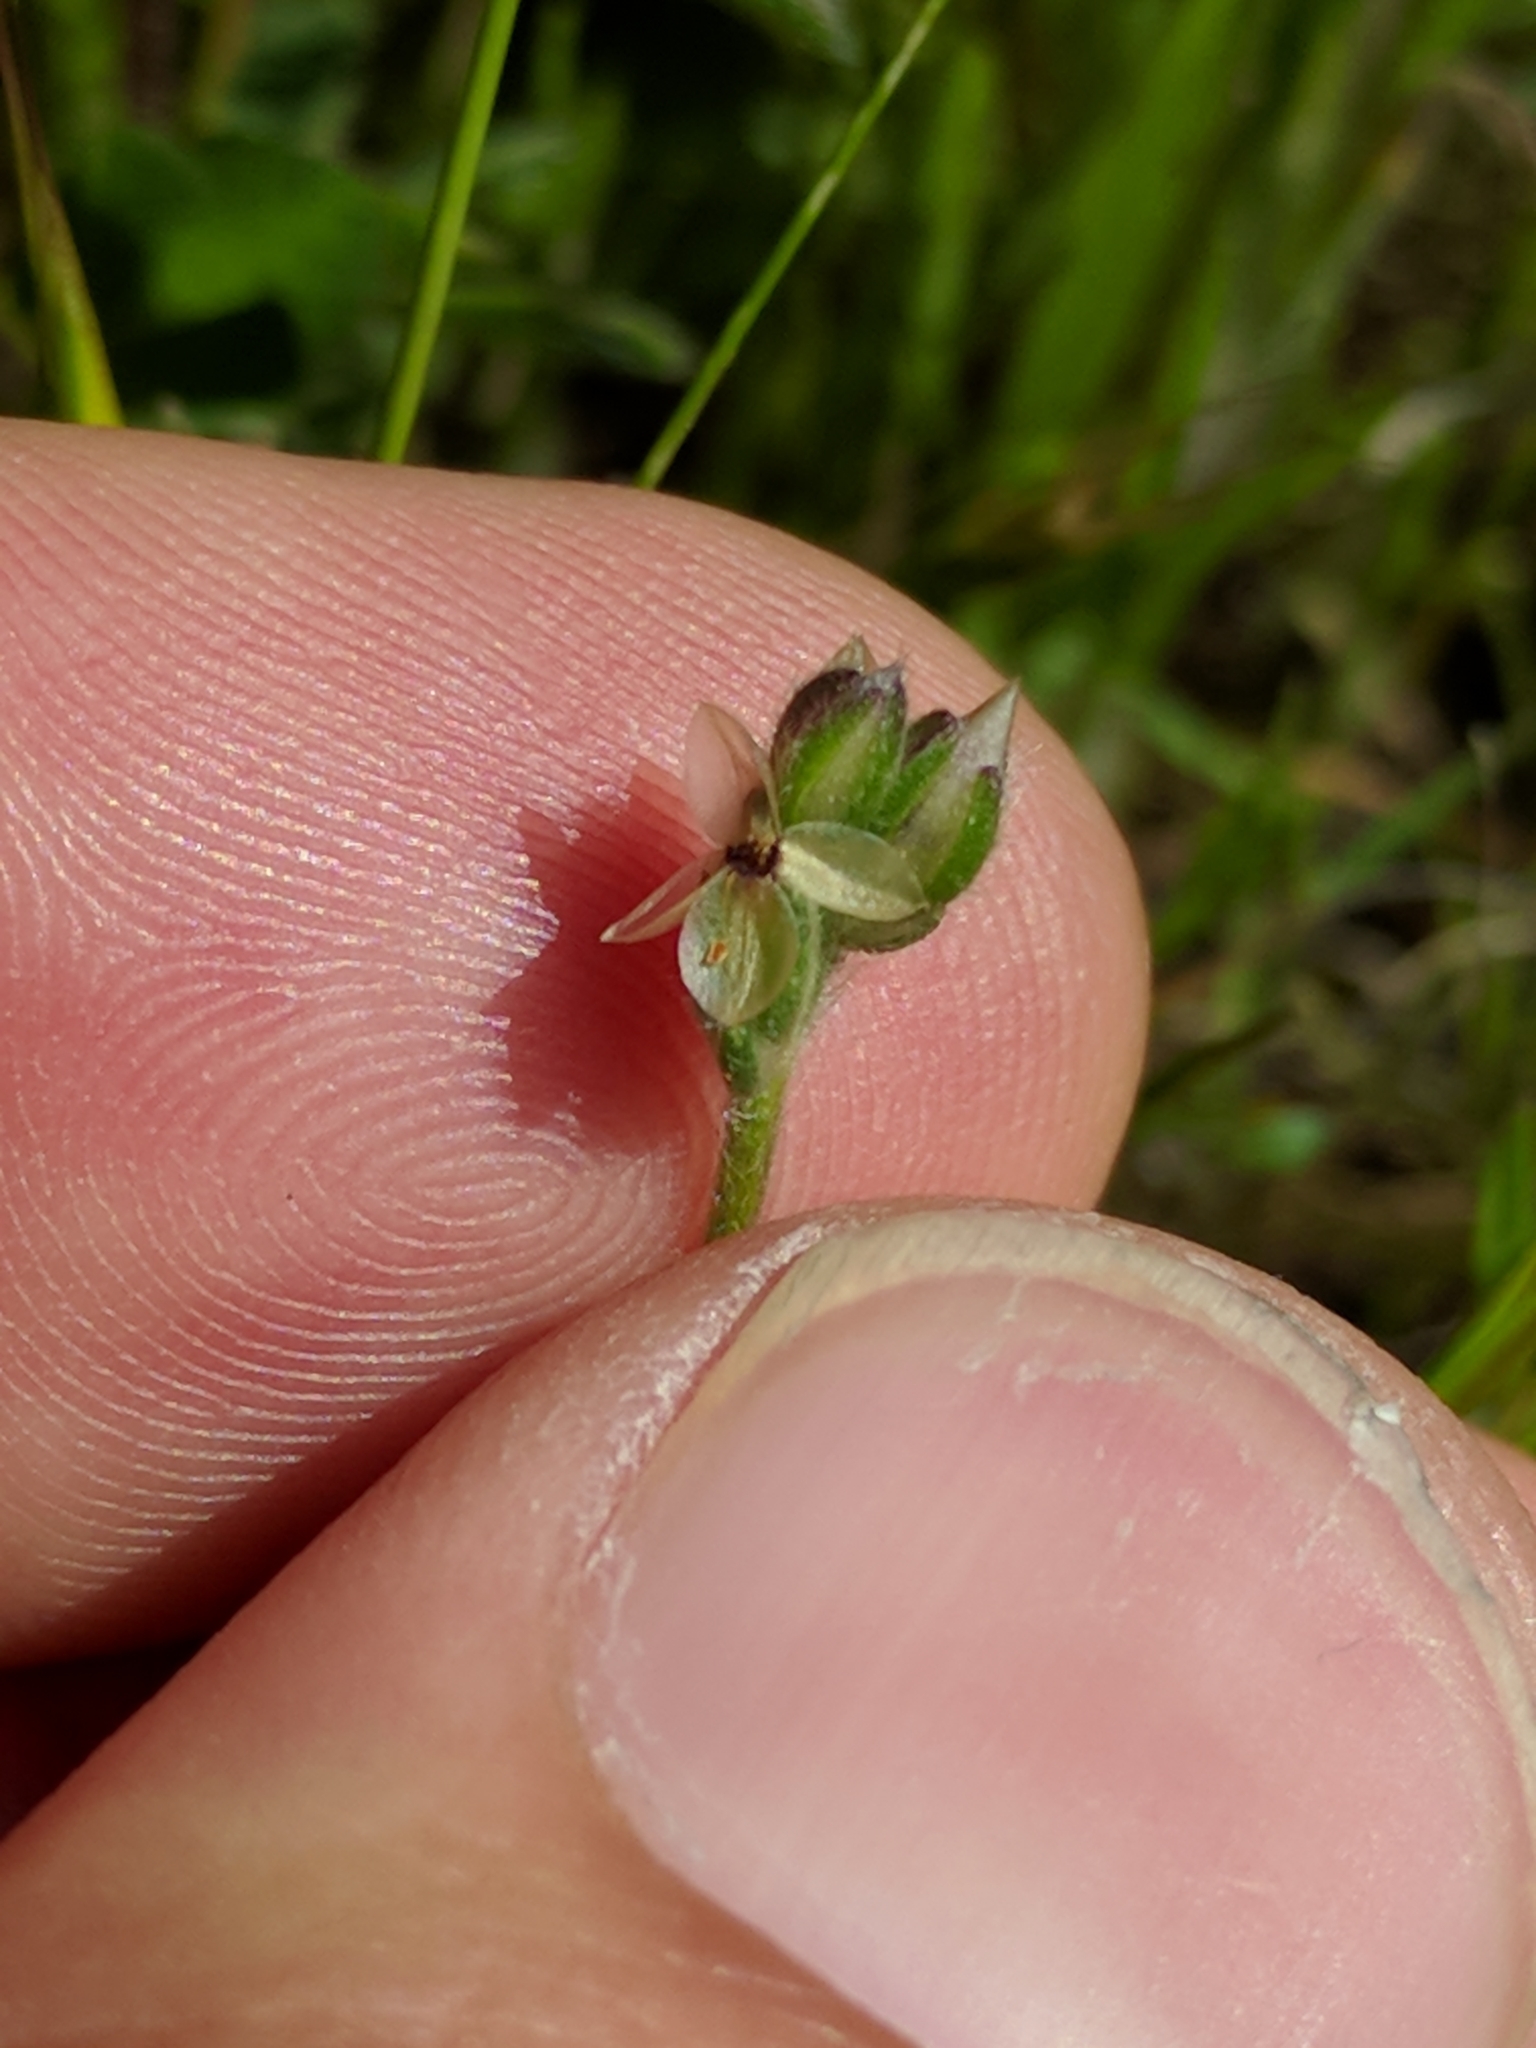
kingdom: Plantae
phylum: Tracheophyta
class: Magnoliopsida
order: Lamiales
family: Plantaginaceae
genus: Plantago
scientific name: Plantago erecta
